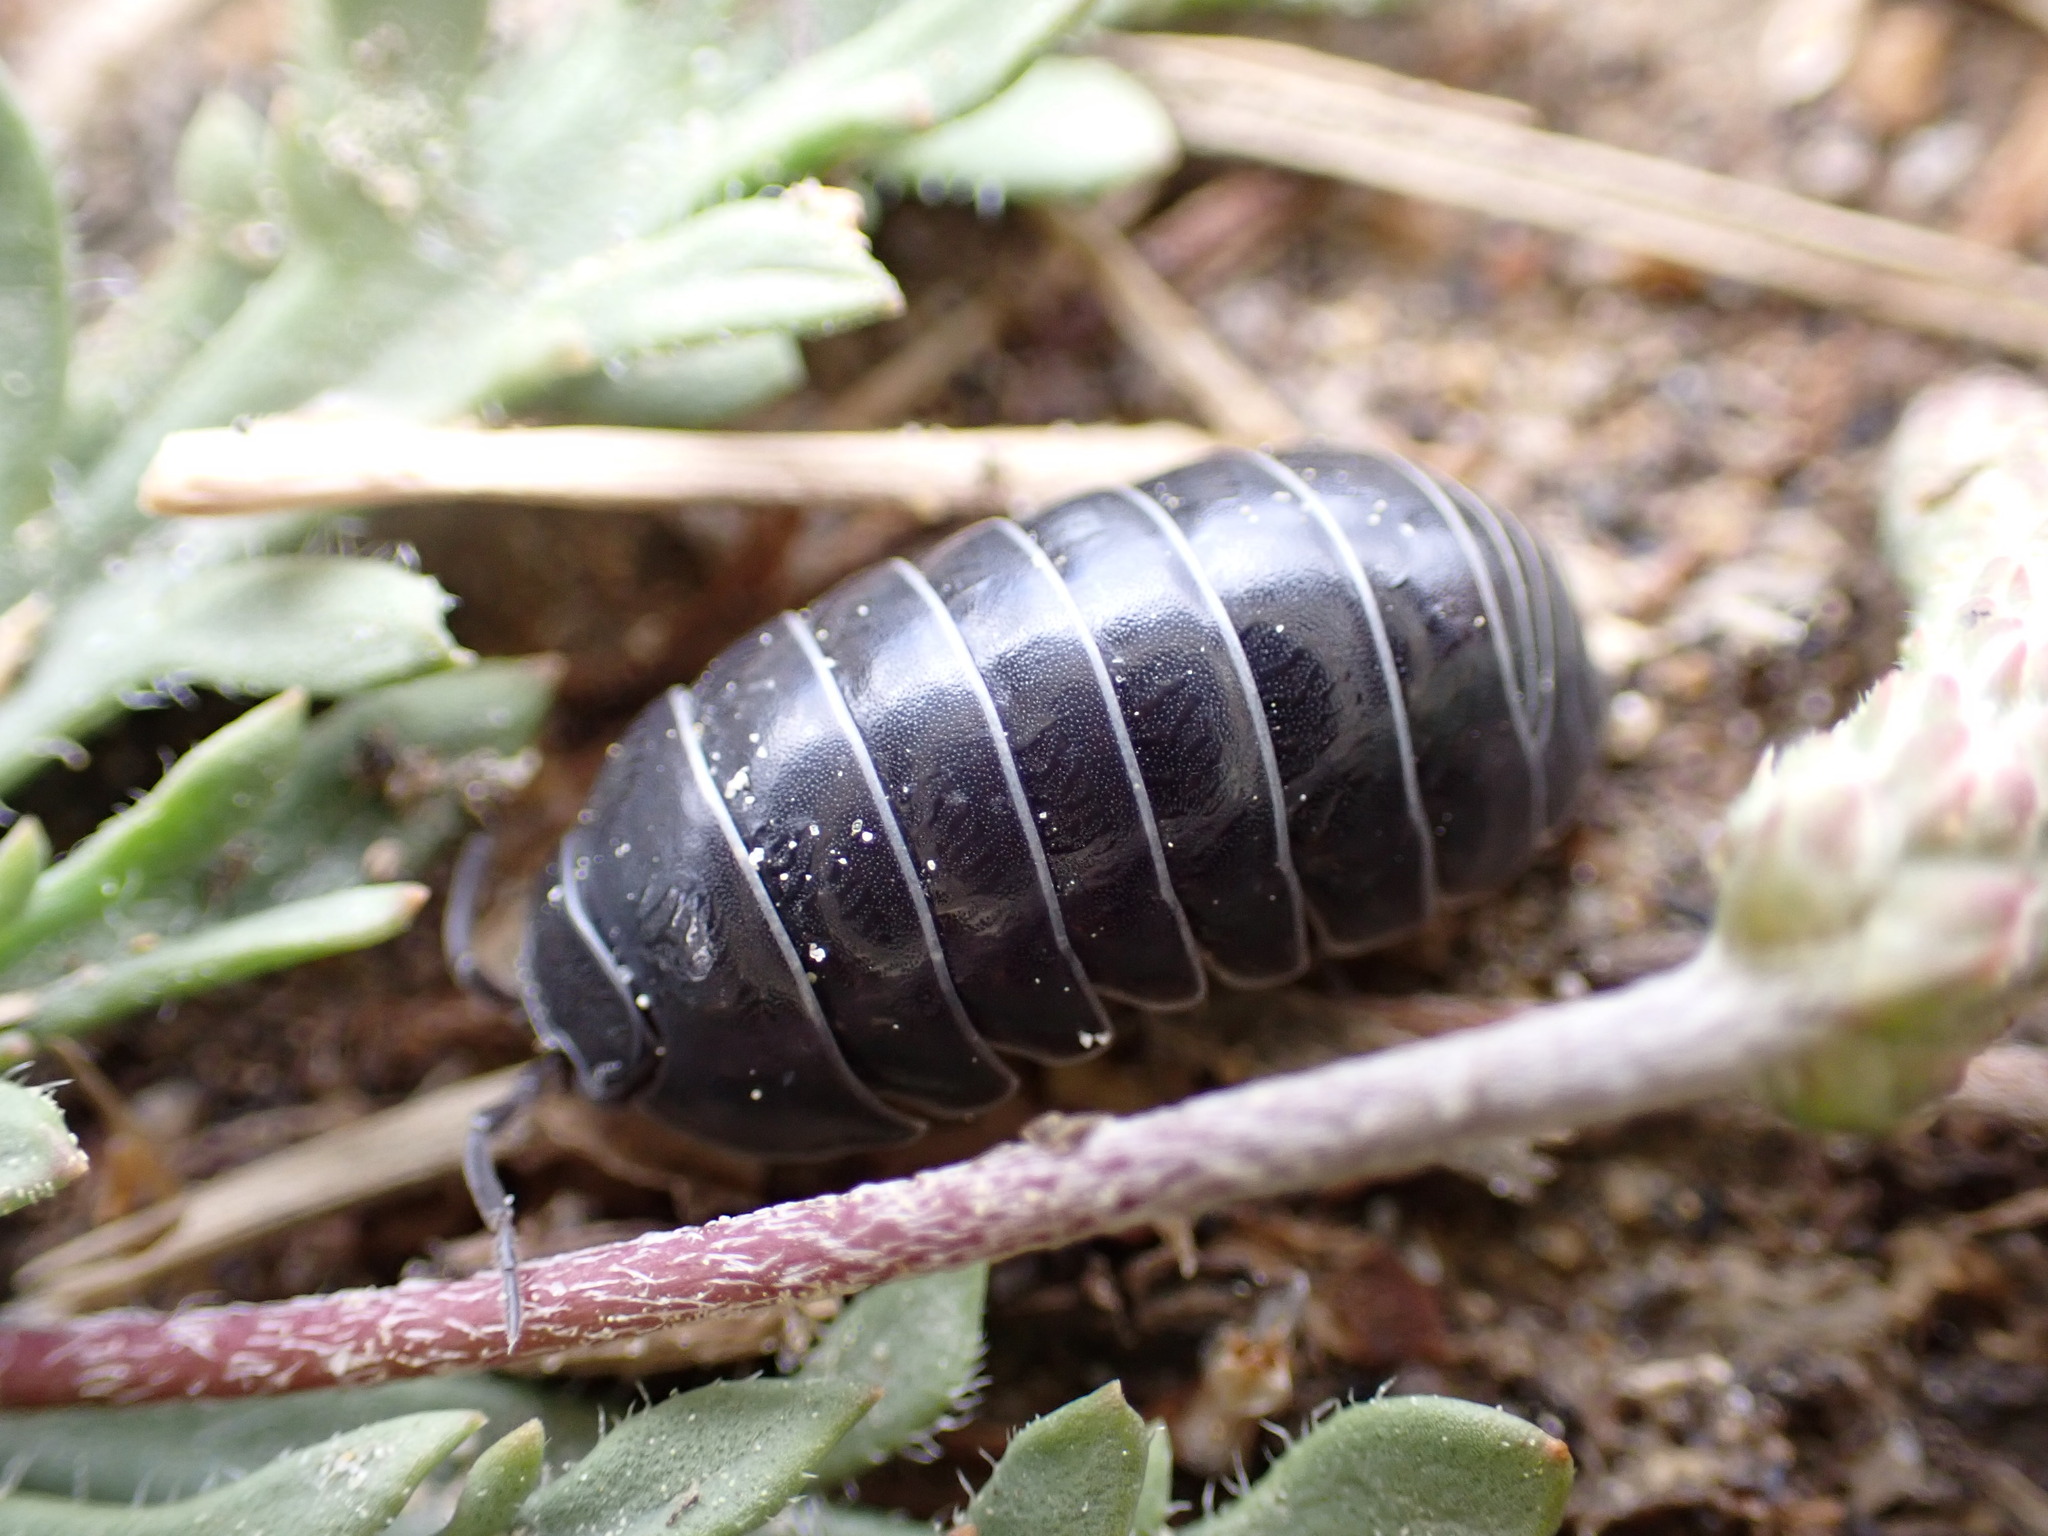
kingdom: Animalia
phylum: Arthropoda
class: Malacostraca
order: Isopoda
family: Armadillidiidae
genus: Armadillidium
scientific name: Armadillidium vulgare
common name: Common pill woodlouse
